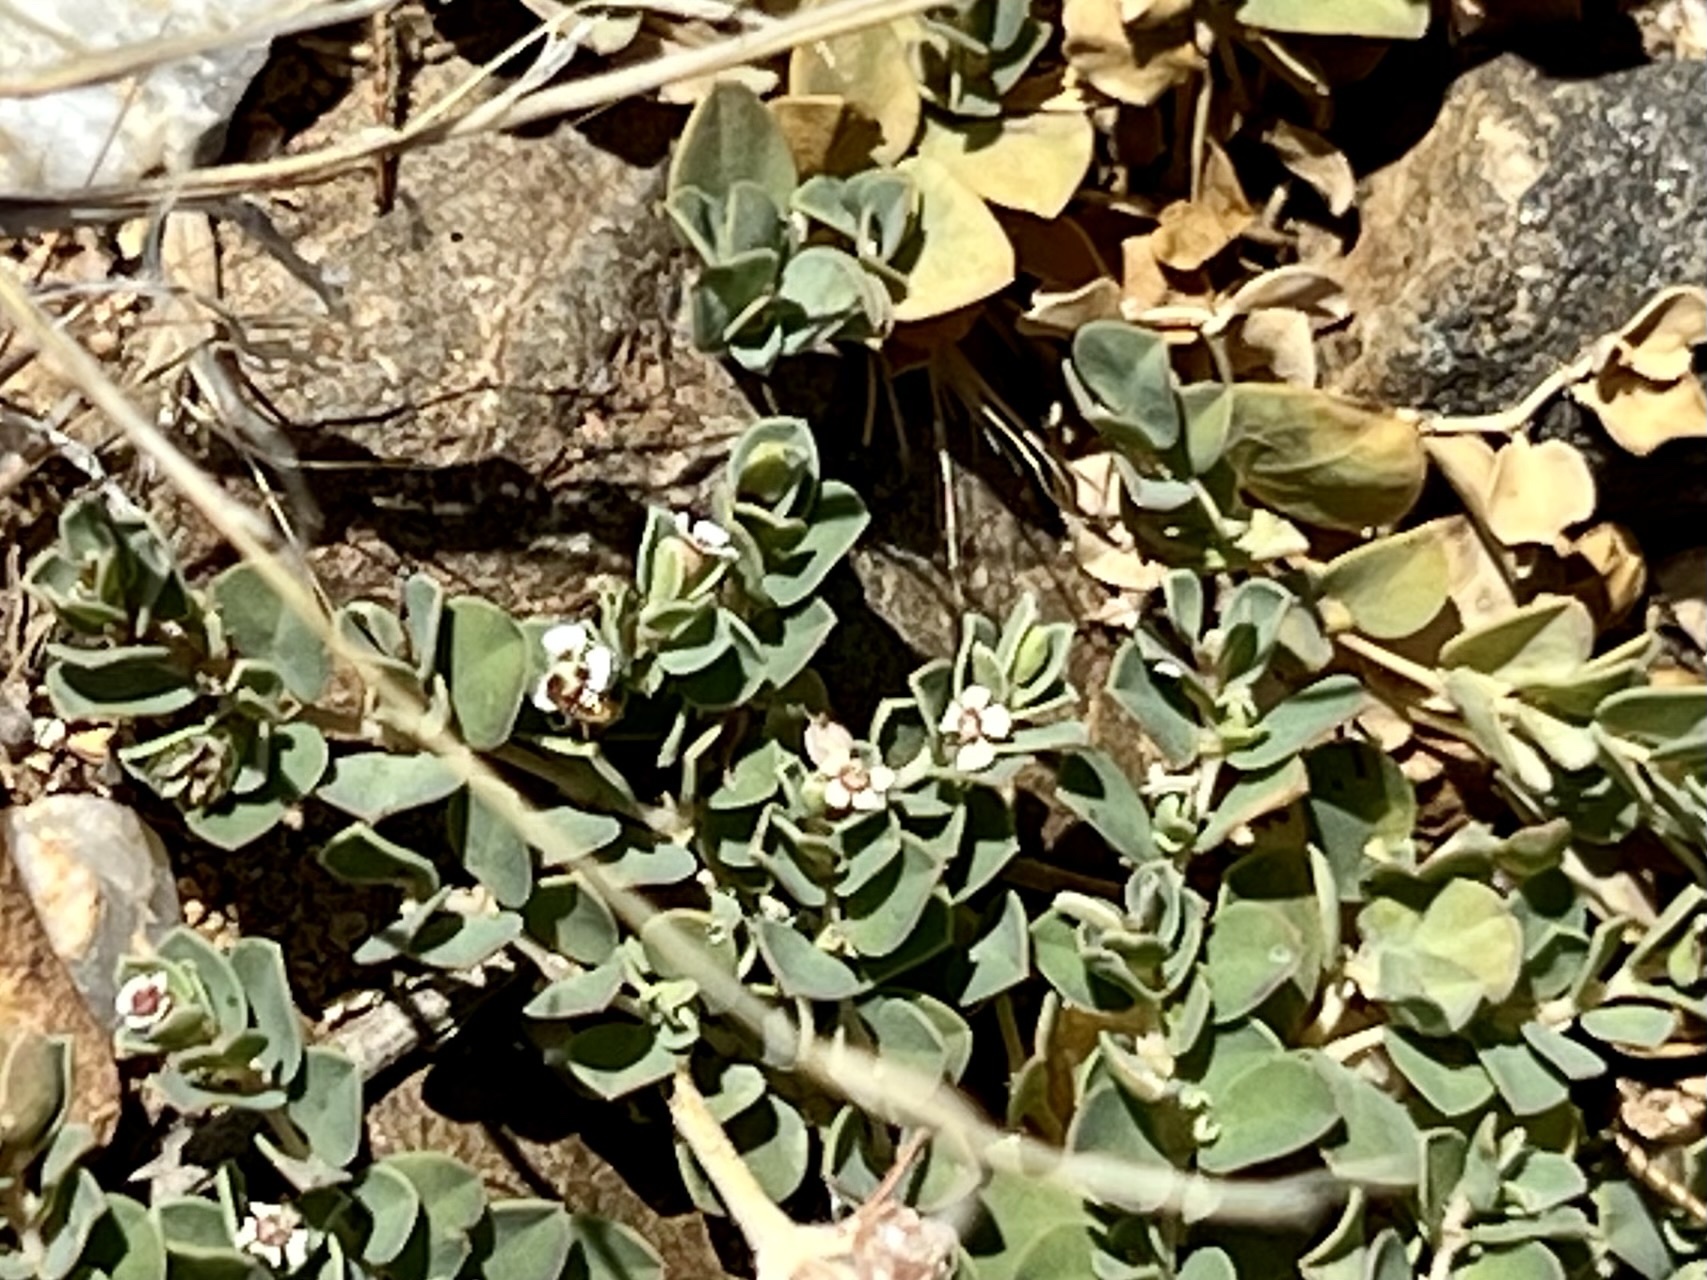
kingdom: Plantae
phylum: Tracheophyta
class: Magnoliopsida
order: Malpighiales
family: Euphorbiaceae
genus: Euphorbia
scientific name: Euphorbia albomarginata
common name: Whitemargin sandmat
